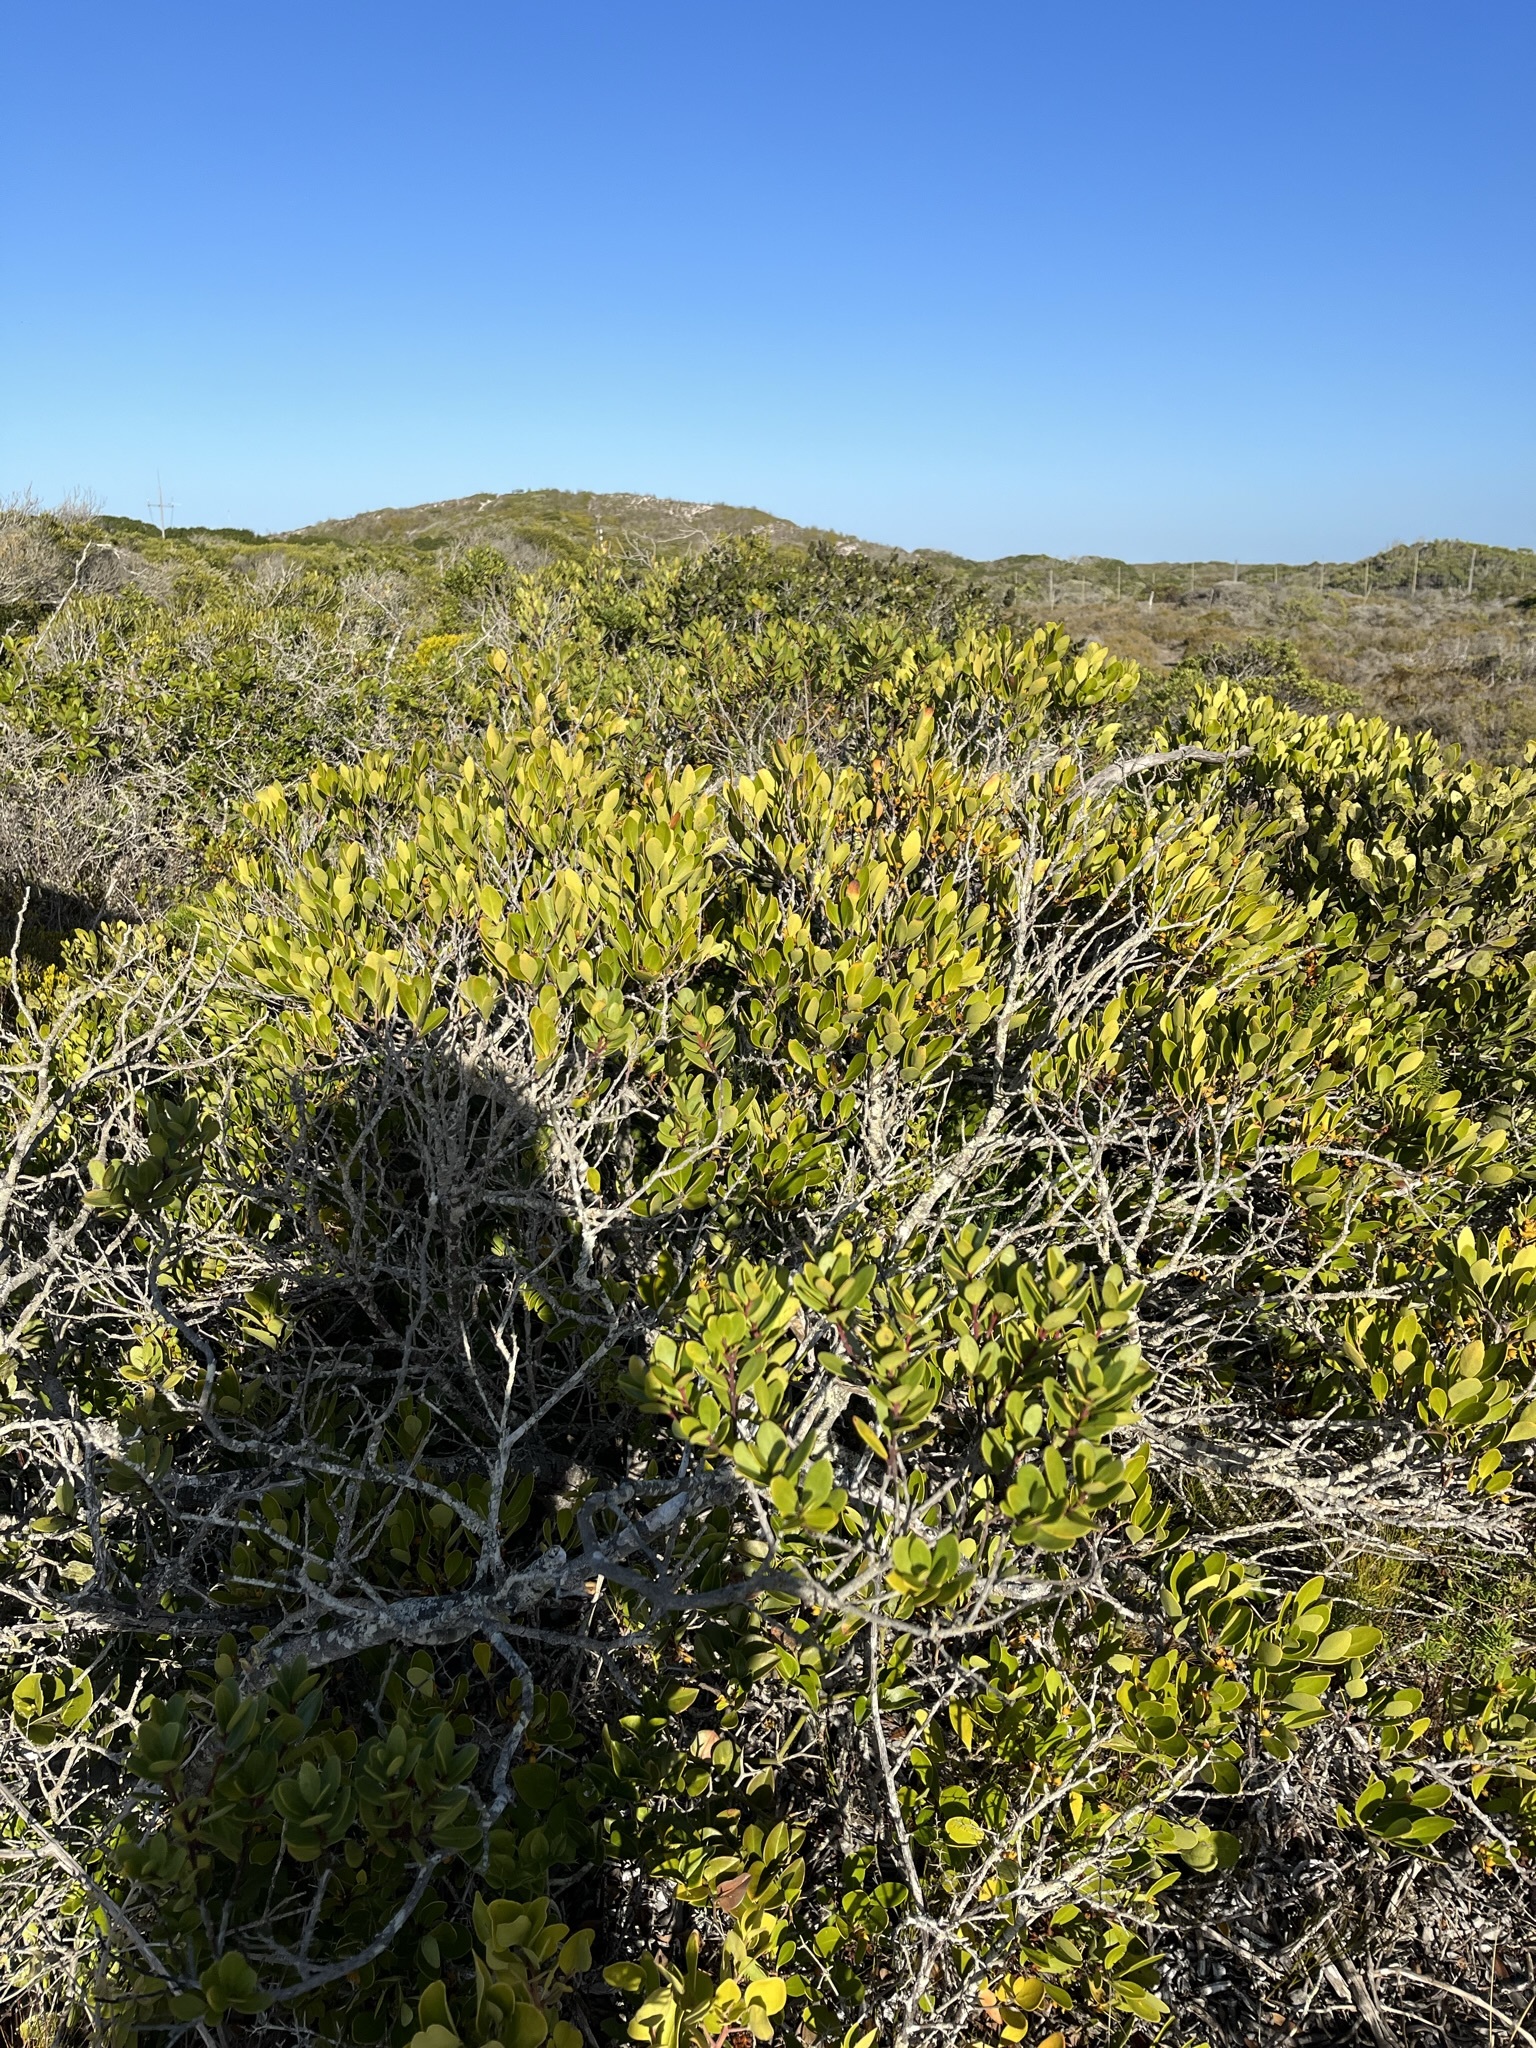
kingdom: Plantae
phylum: Tracheophyta
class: Magnoliopsida
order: Celastrales
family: Celastraceae
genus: Pterocelastrus
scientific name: Pterocelastrus tricuspidatus
